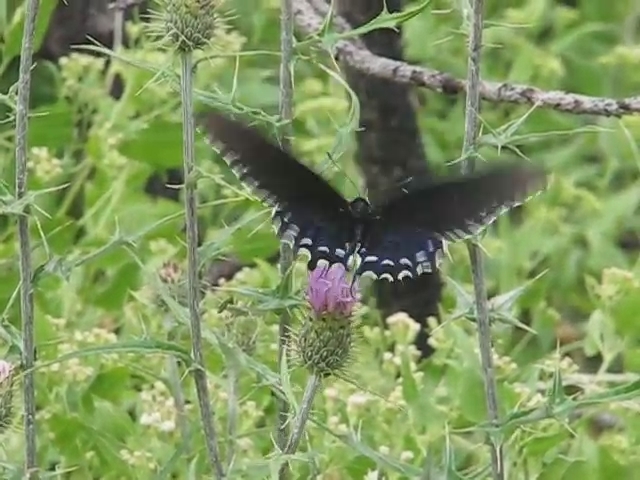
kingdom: Animalia
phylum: Arthropoda
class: Insecta
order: Lepidoptera
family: Papilionidae
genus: Battus
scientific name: Battus philenor
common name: Pipevine swallowtail
